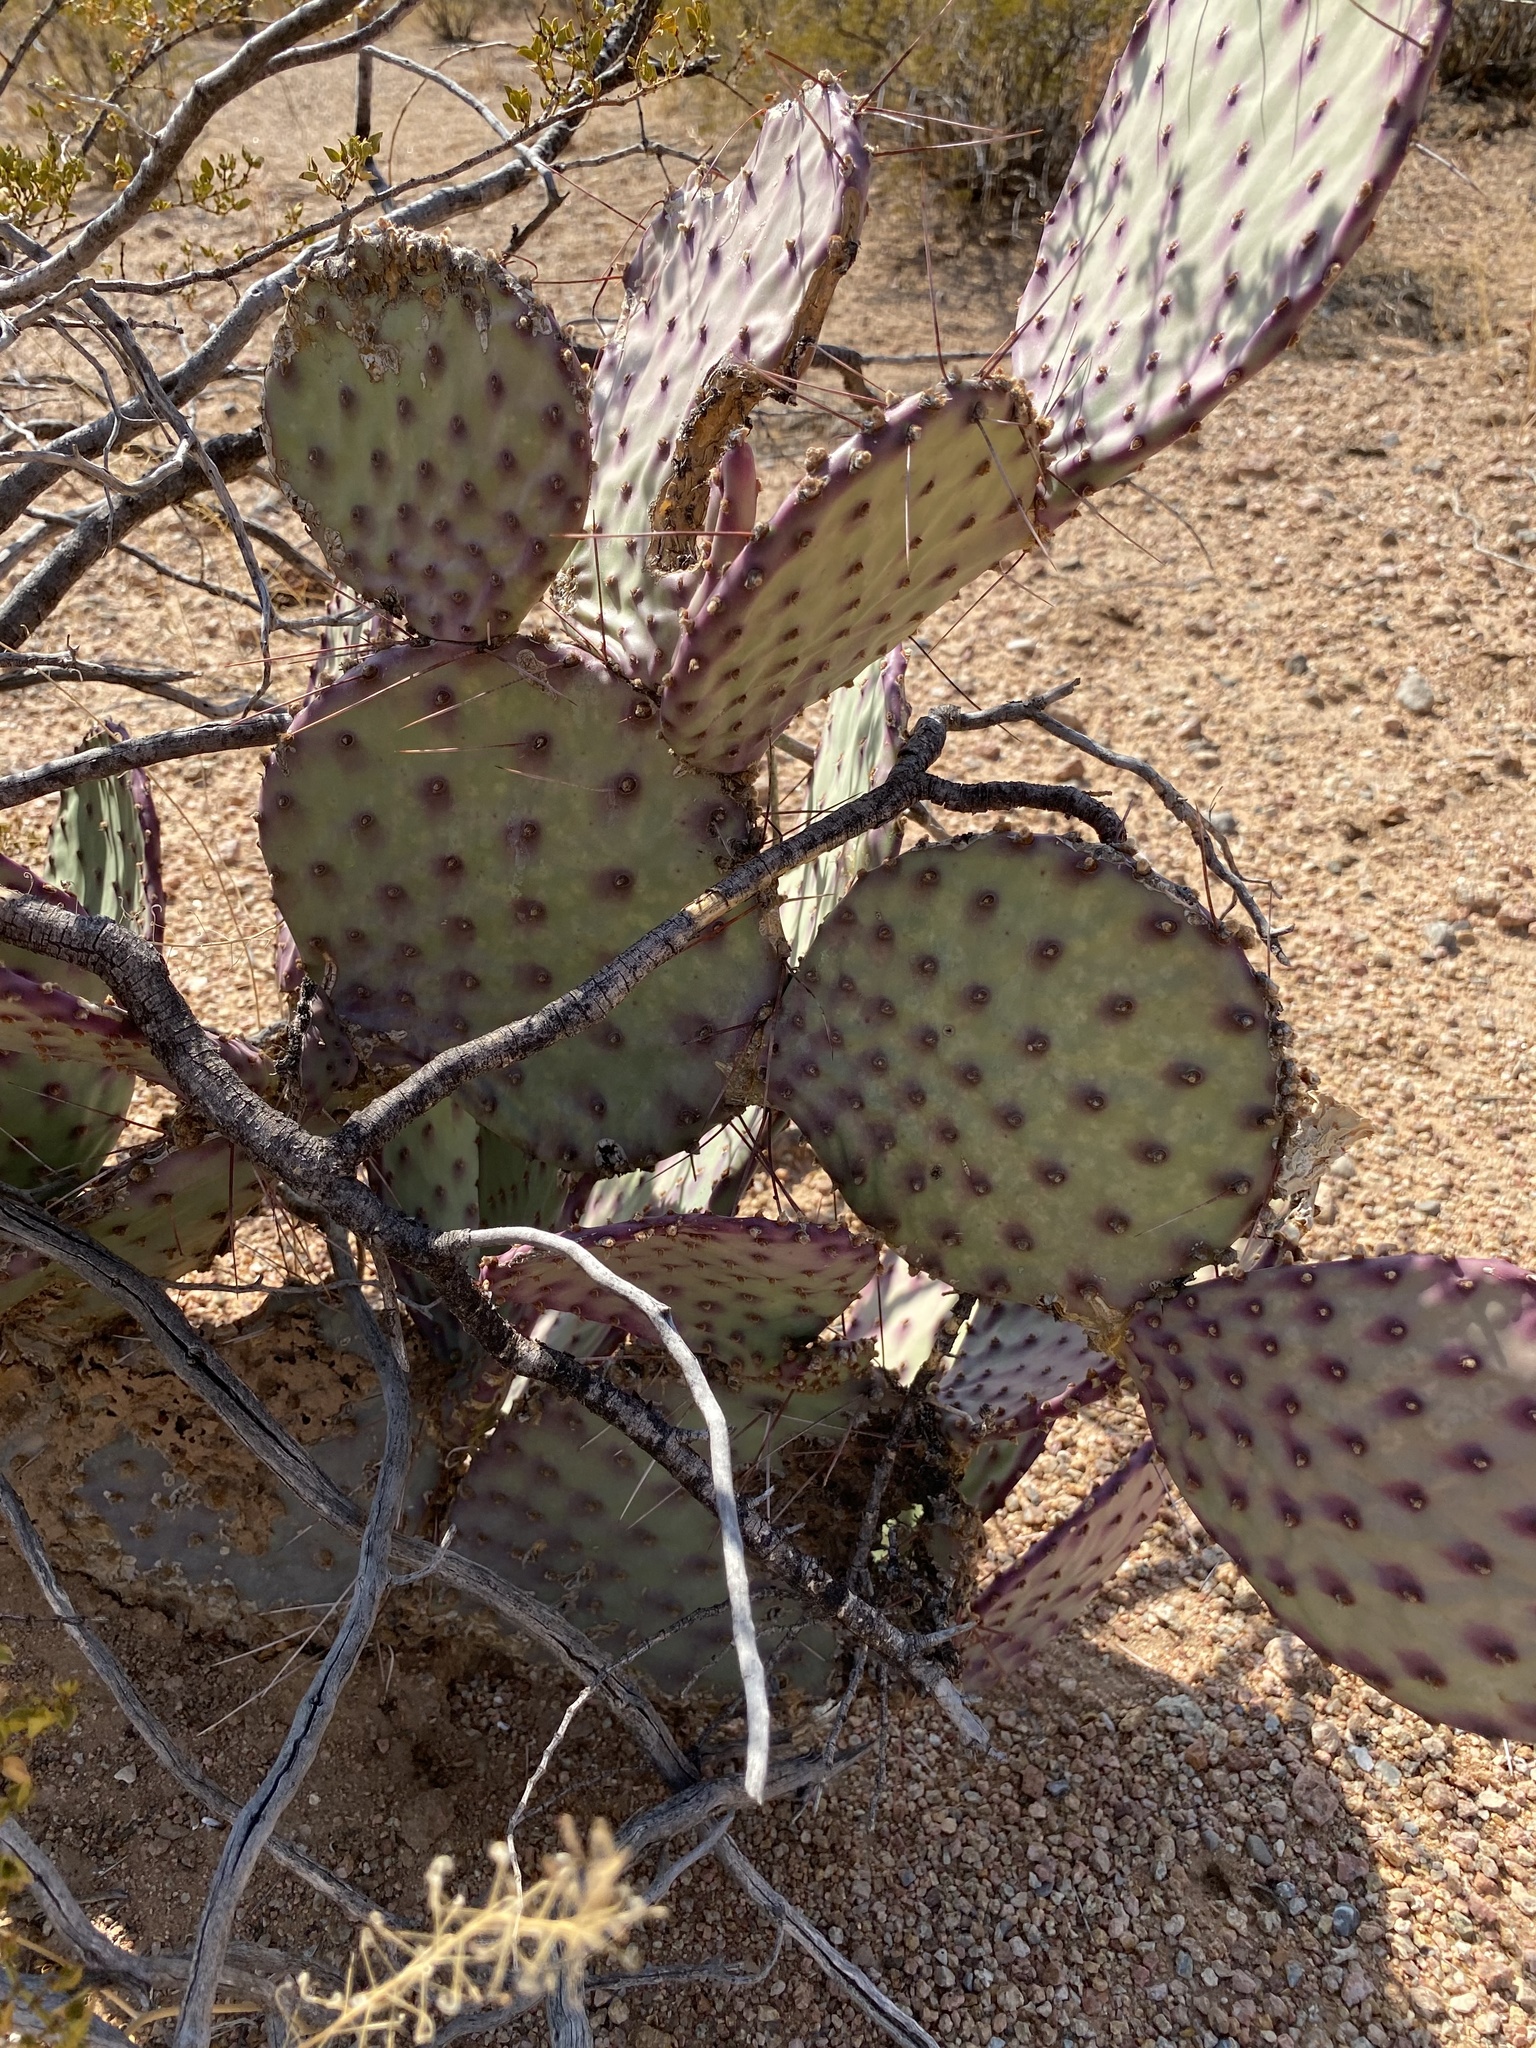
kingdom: Plantae
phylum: Tracheophyta
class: Magnoliopsida
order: Caryophyllales
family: Cactaceae
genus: Opuntia
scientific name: Opuntia macrocentra
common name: Purple prickly-pear
